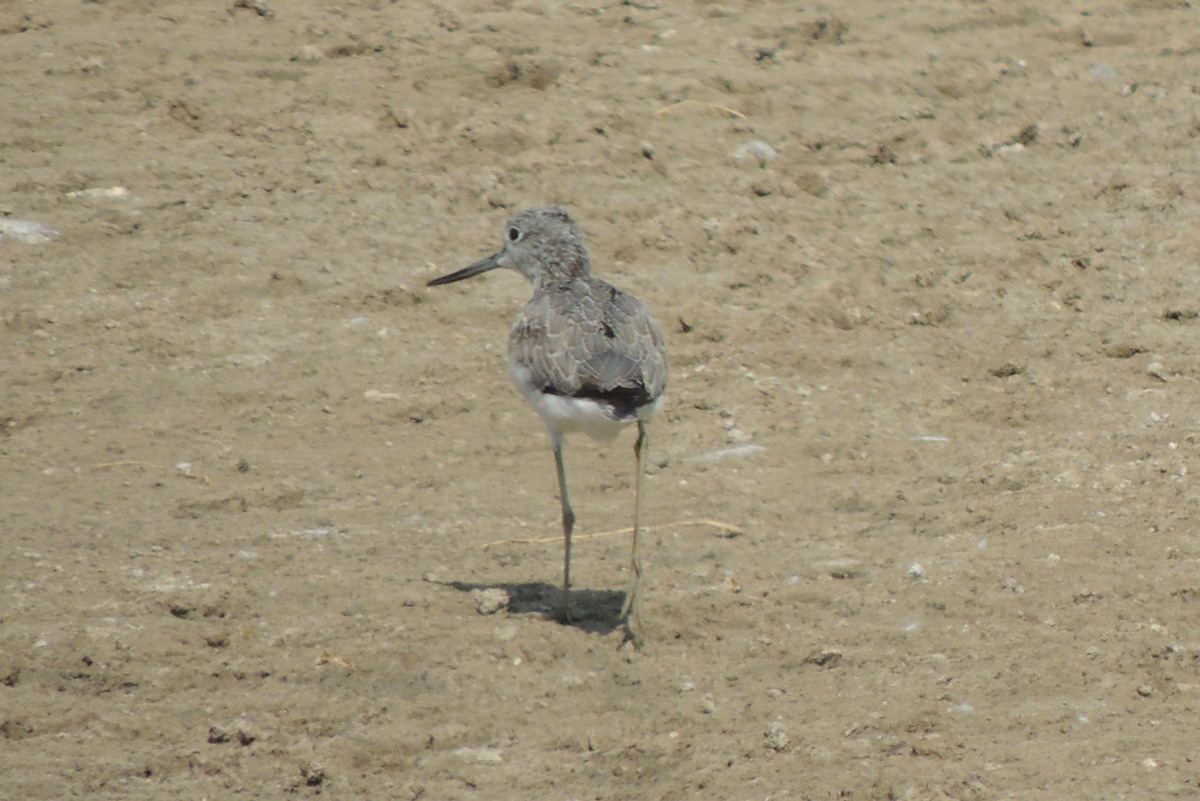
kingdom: Animalia
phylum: Chordata
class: Aves
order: Charadriiformes
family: Scolopacidae
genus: Tringa
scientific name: Tringa nebularia
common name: Common greenshank
